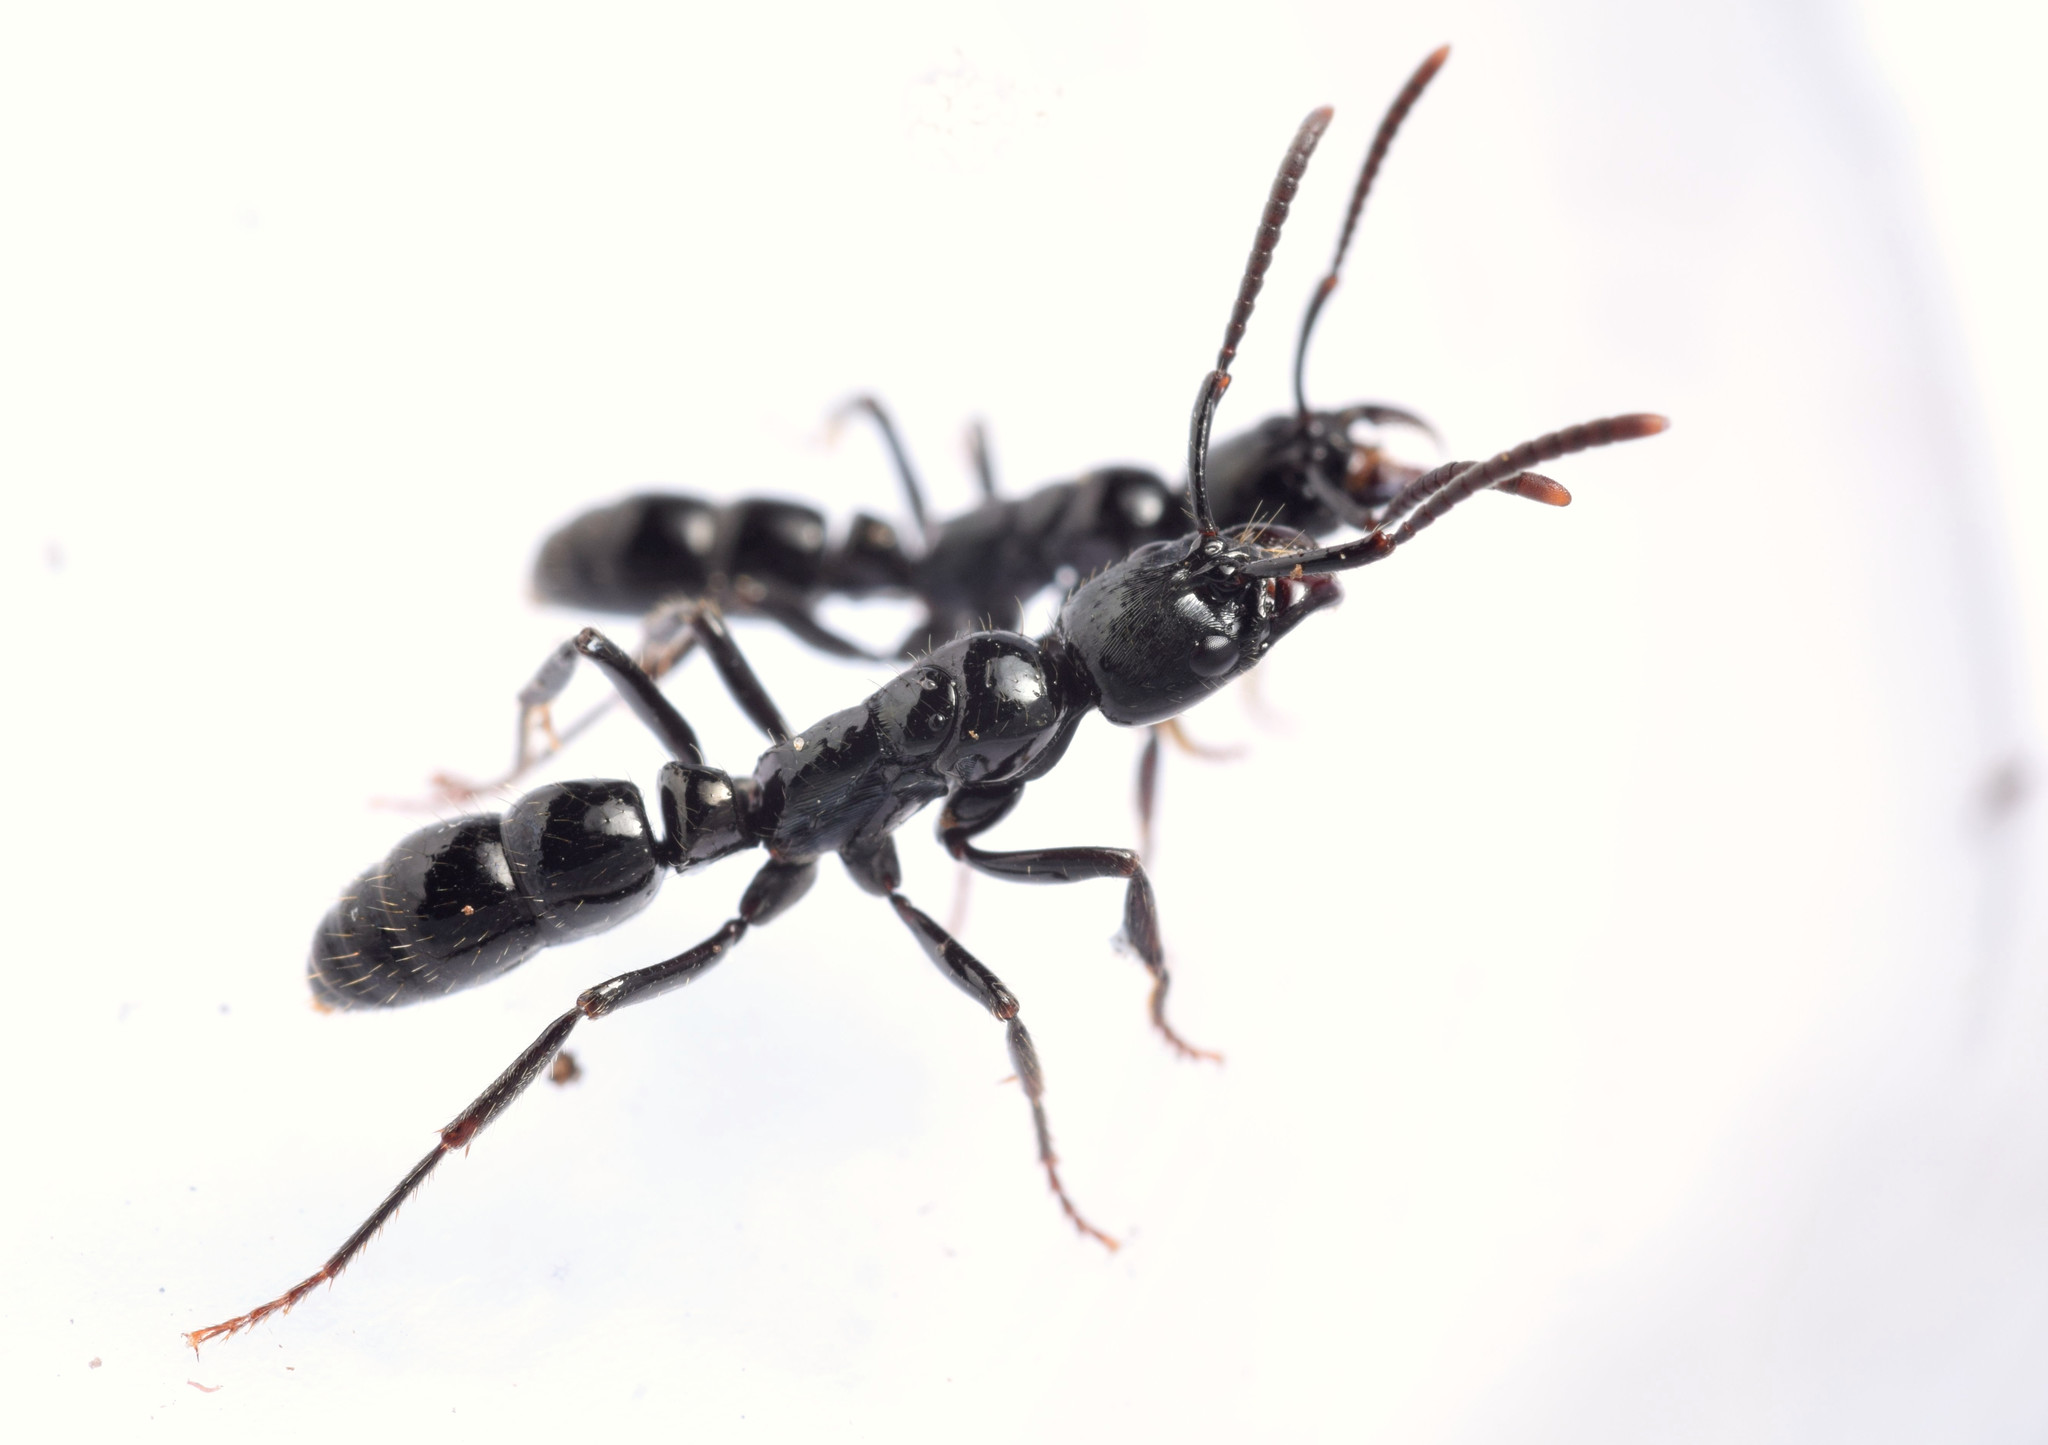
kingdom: Animalia
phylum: Arthropoda
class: Insecta
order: Hymenoptera
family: Formicidae
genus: Neoponera
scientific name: Neoponera laevigata
